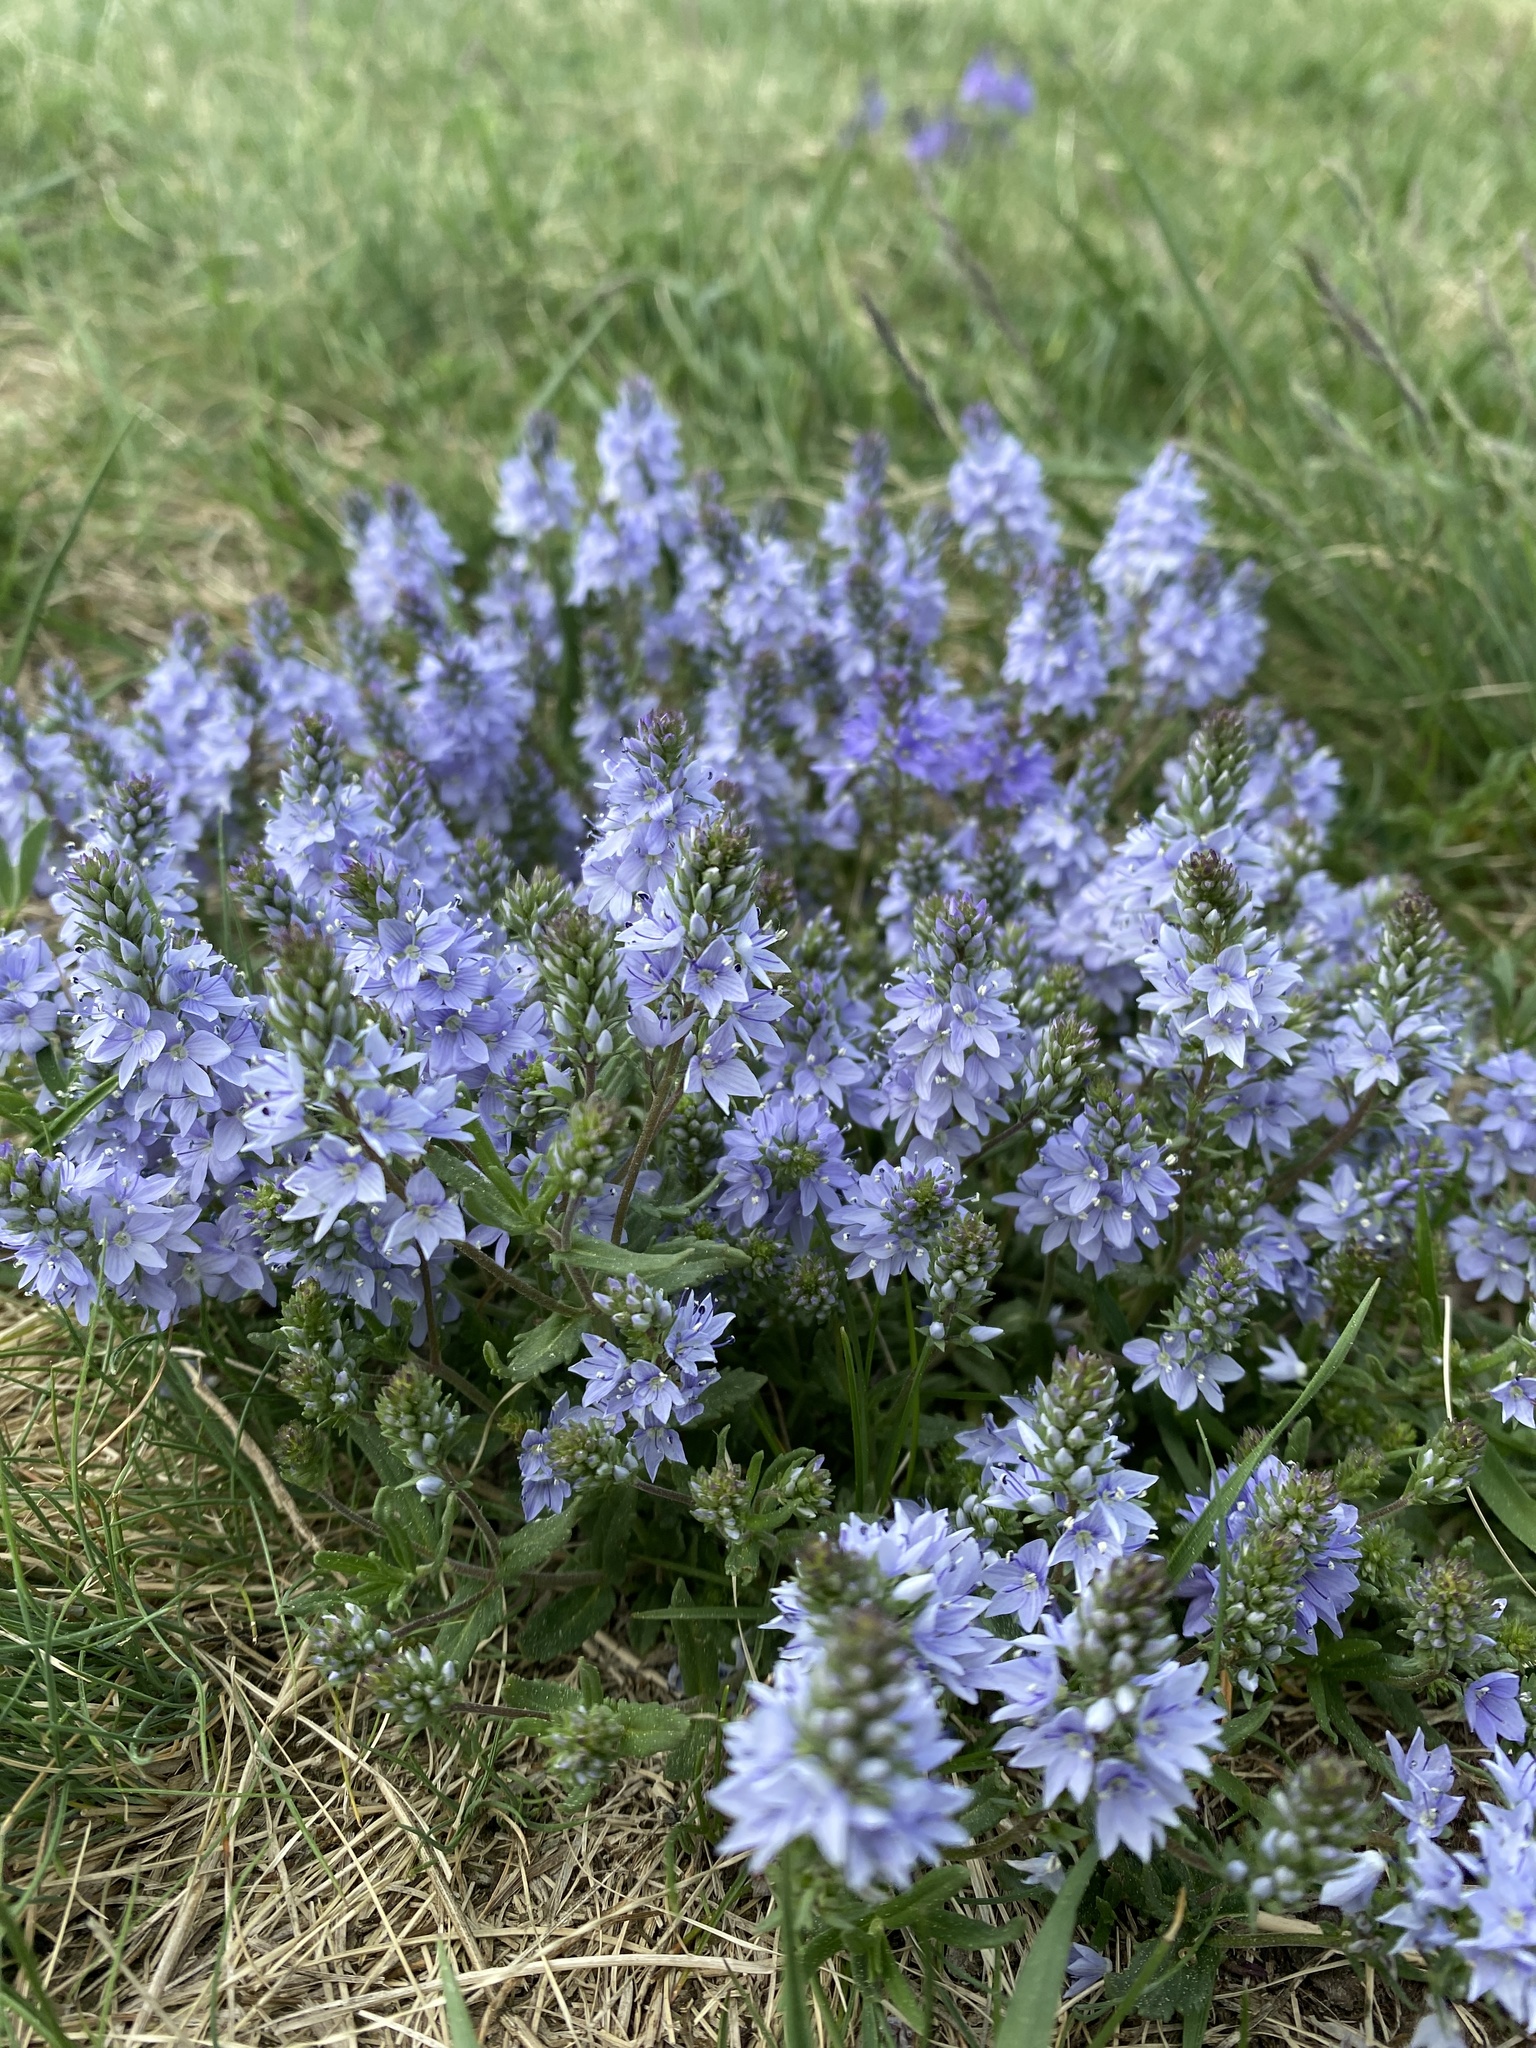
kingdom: Plantae
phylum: Tracheophyta
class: Magnoliopsida
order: Lamiales
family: Plantaginaceae
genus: Veronica
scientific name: Veronica prostrata
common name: Prostrate speedwell
